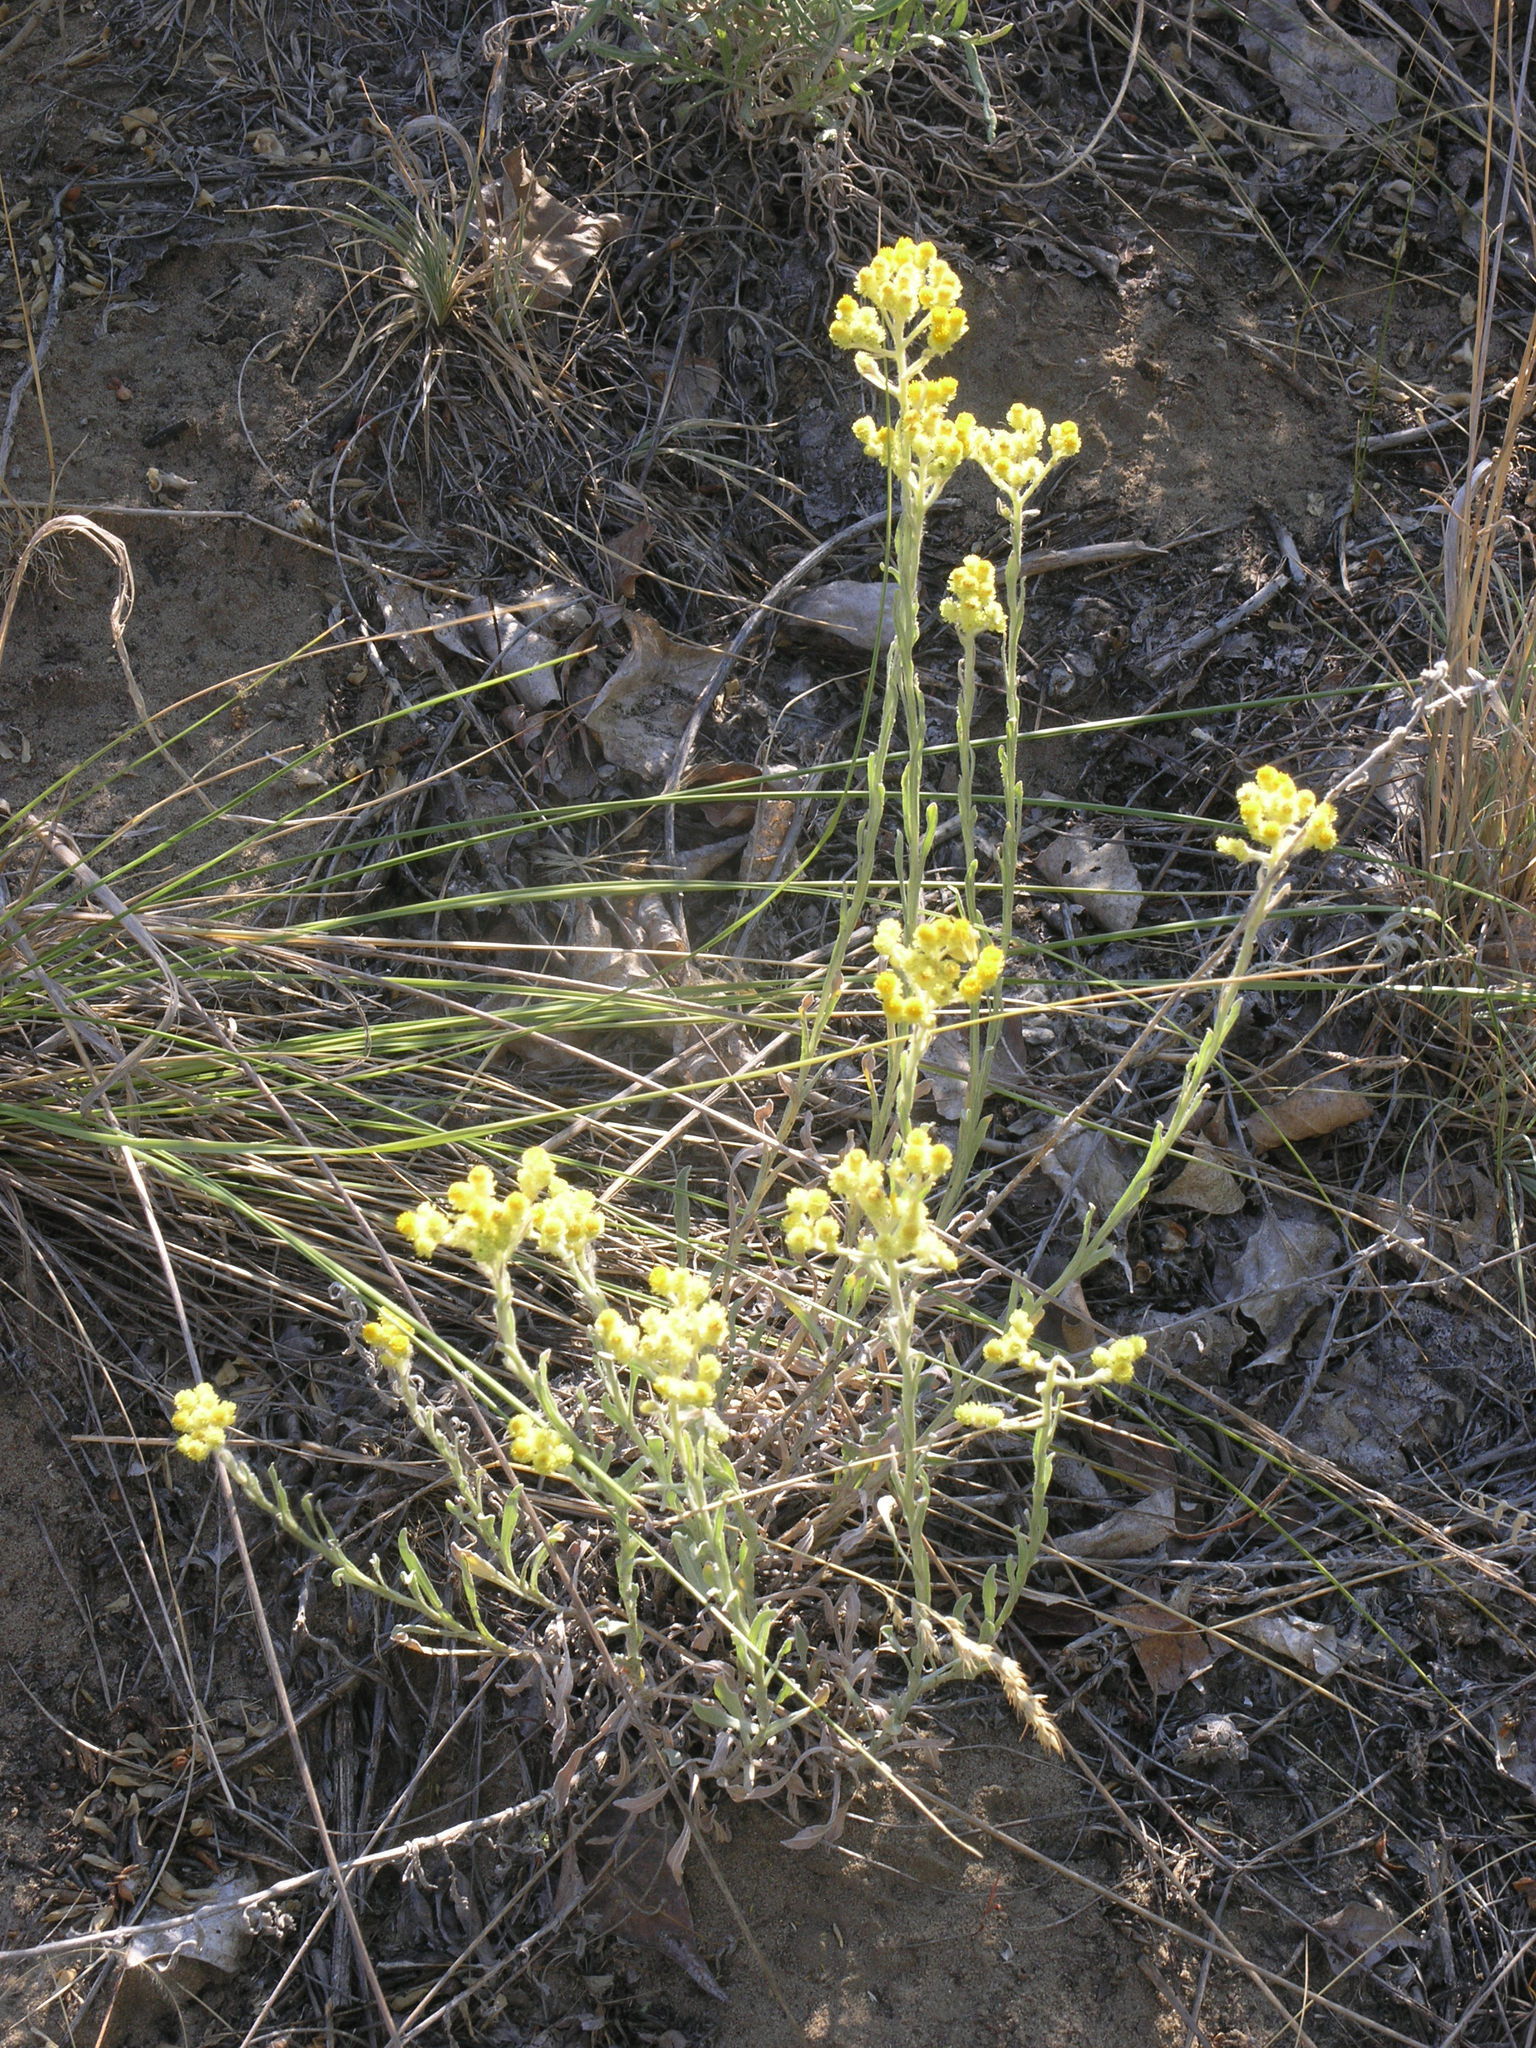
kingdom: Plantae
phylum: Tracheophyta
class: Magnoliopsida
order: Asterales
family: Asteraceae
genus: Helichrysum
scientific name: Helichrysum arenarium
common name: Strawflower
